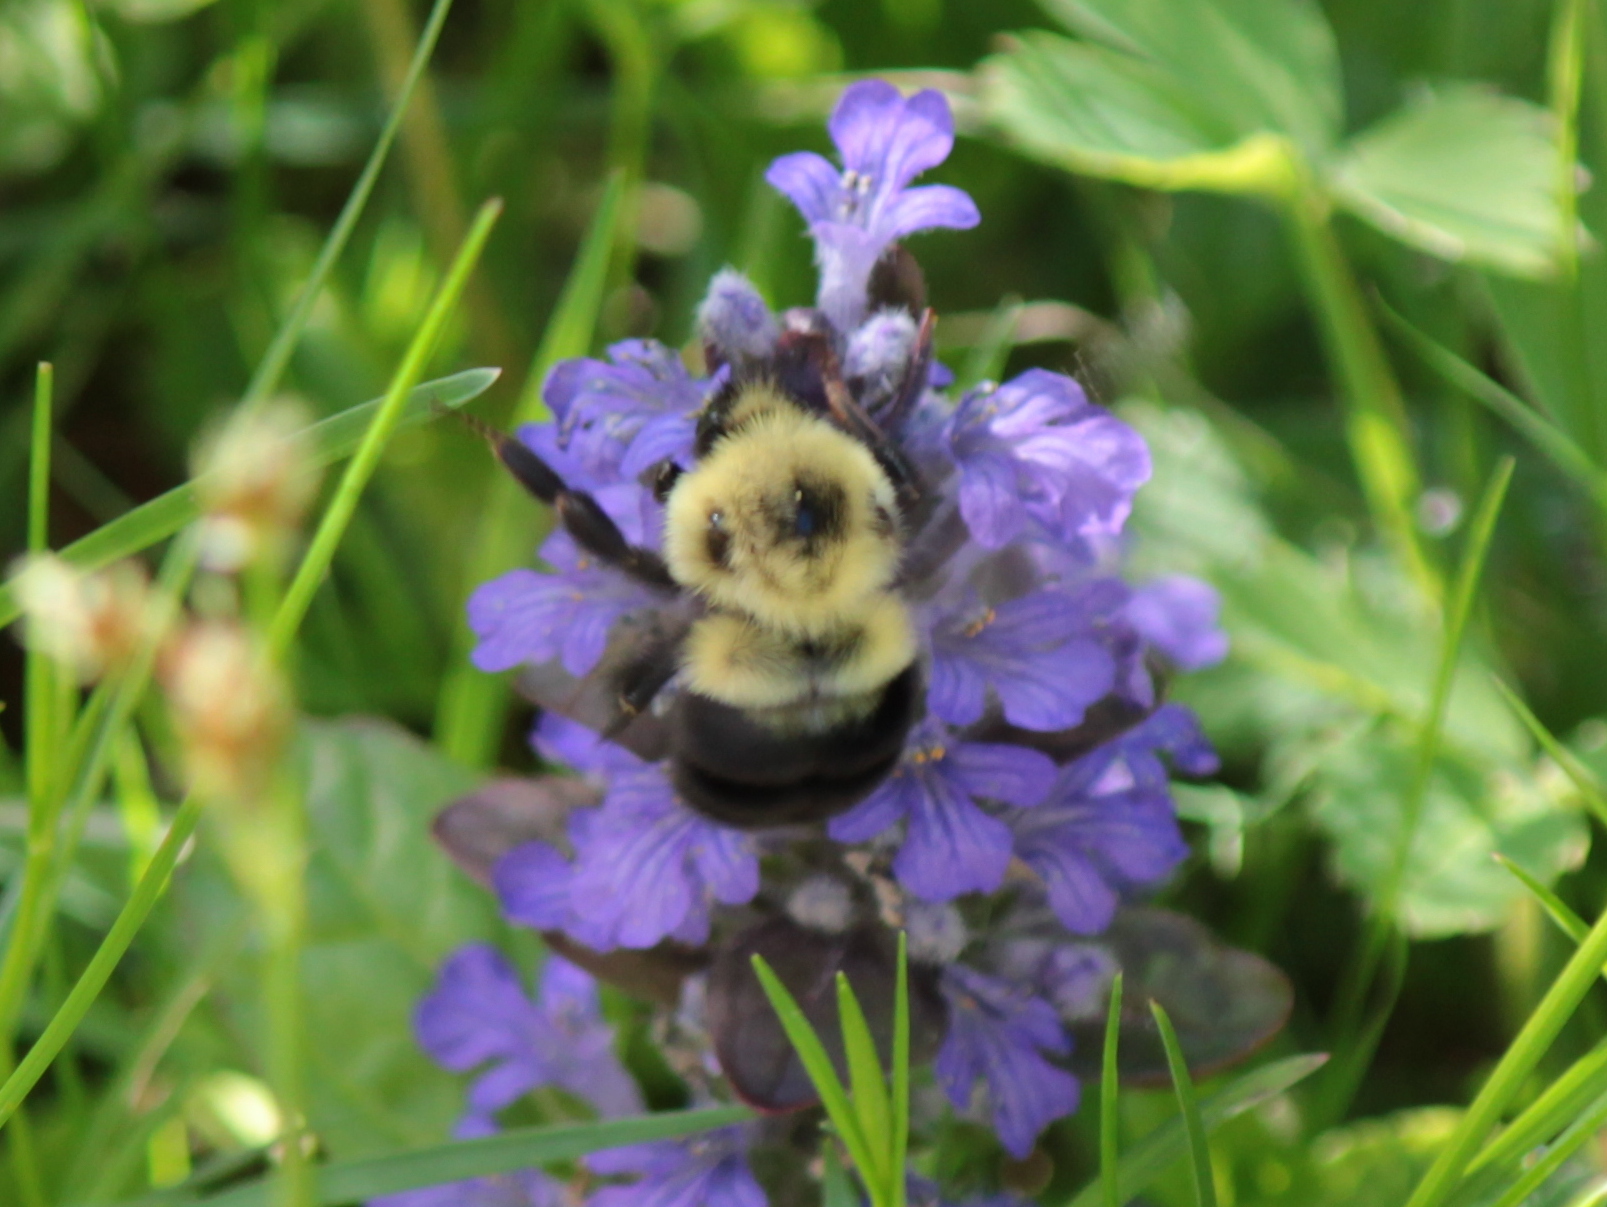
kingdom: Animalia
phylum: Arthropoda
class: Insecta
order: Hymenoptera
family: Apidae
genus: Bombus
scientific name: Bombus bimaculatus
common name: Two-spotted bumble bee
